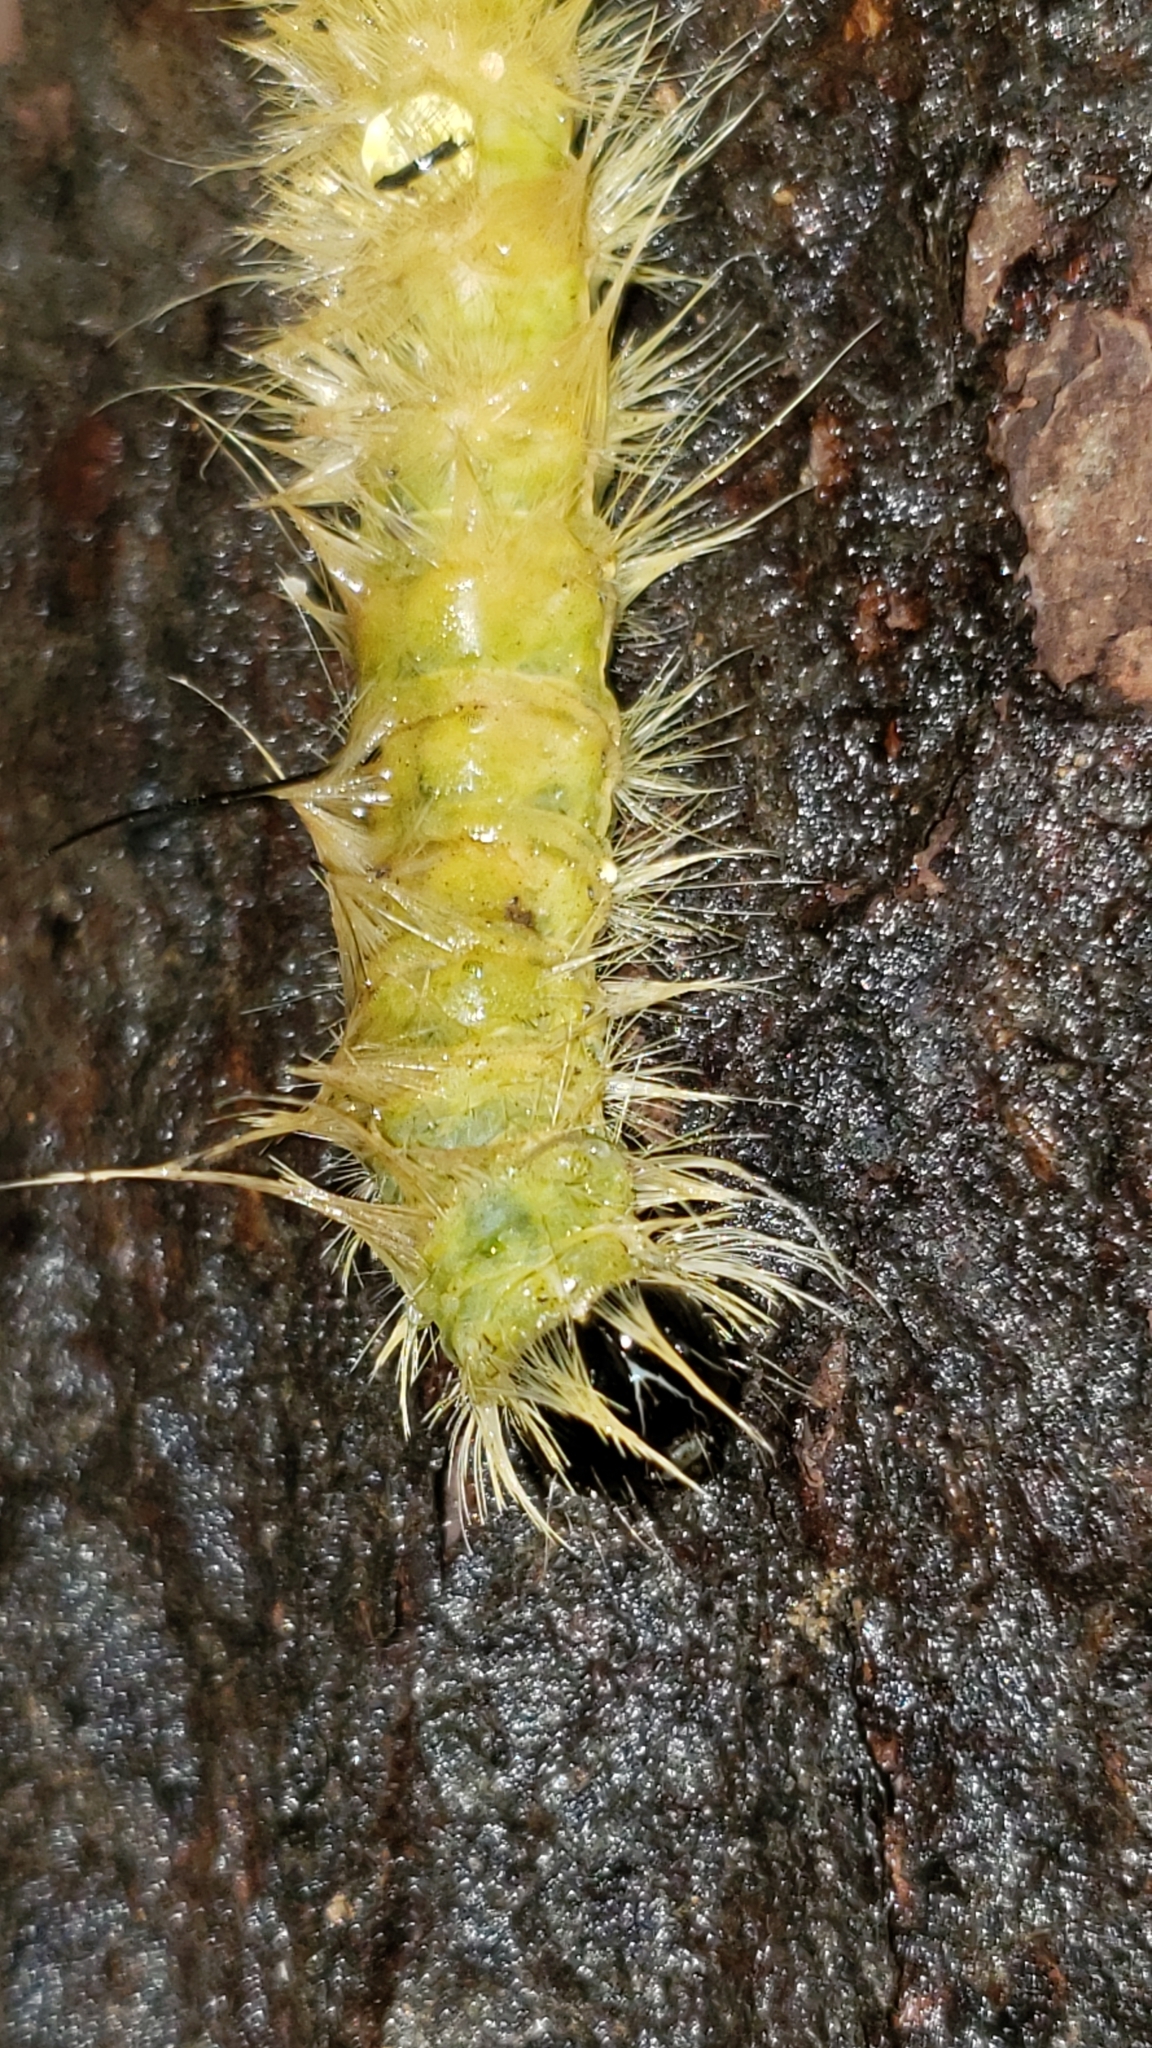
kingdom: Animalia
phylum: Arthropoda
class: Insecta
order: Lepidoptera
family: Noctuidae
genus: Acronicta
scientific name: Acronicta americana
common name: American dagger
